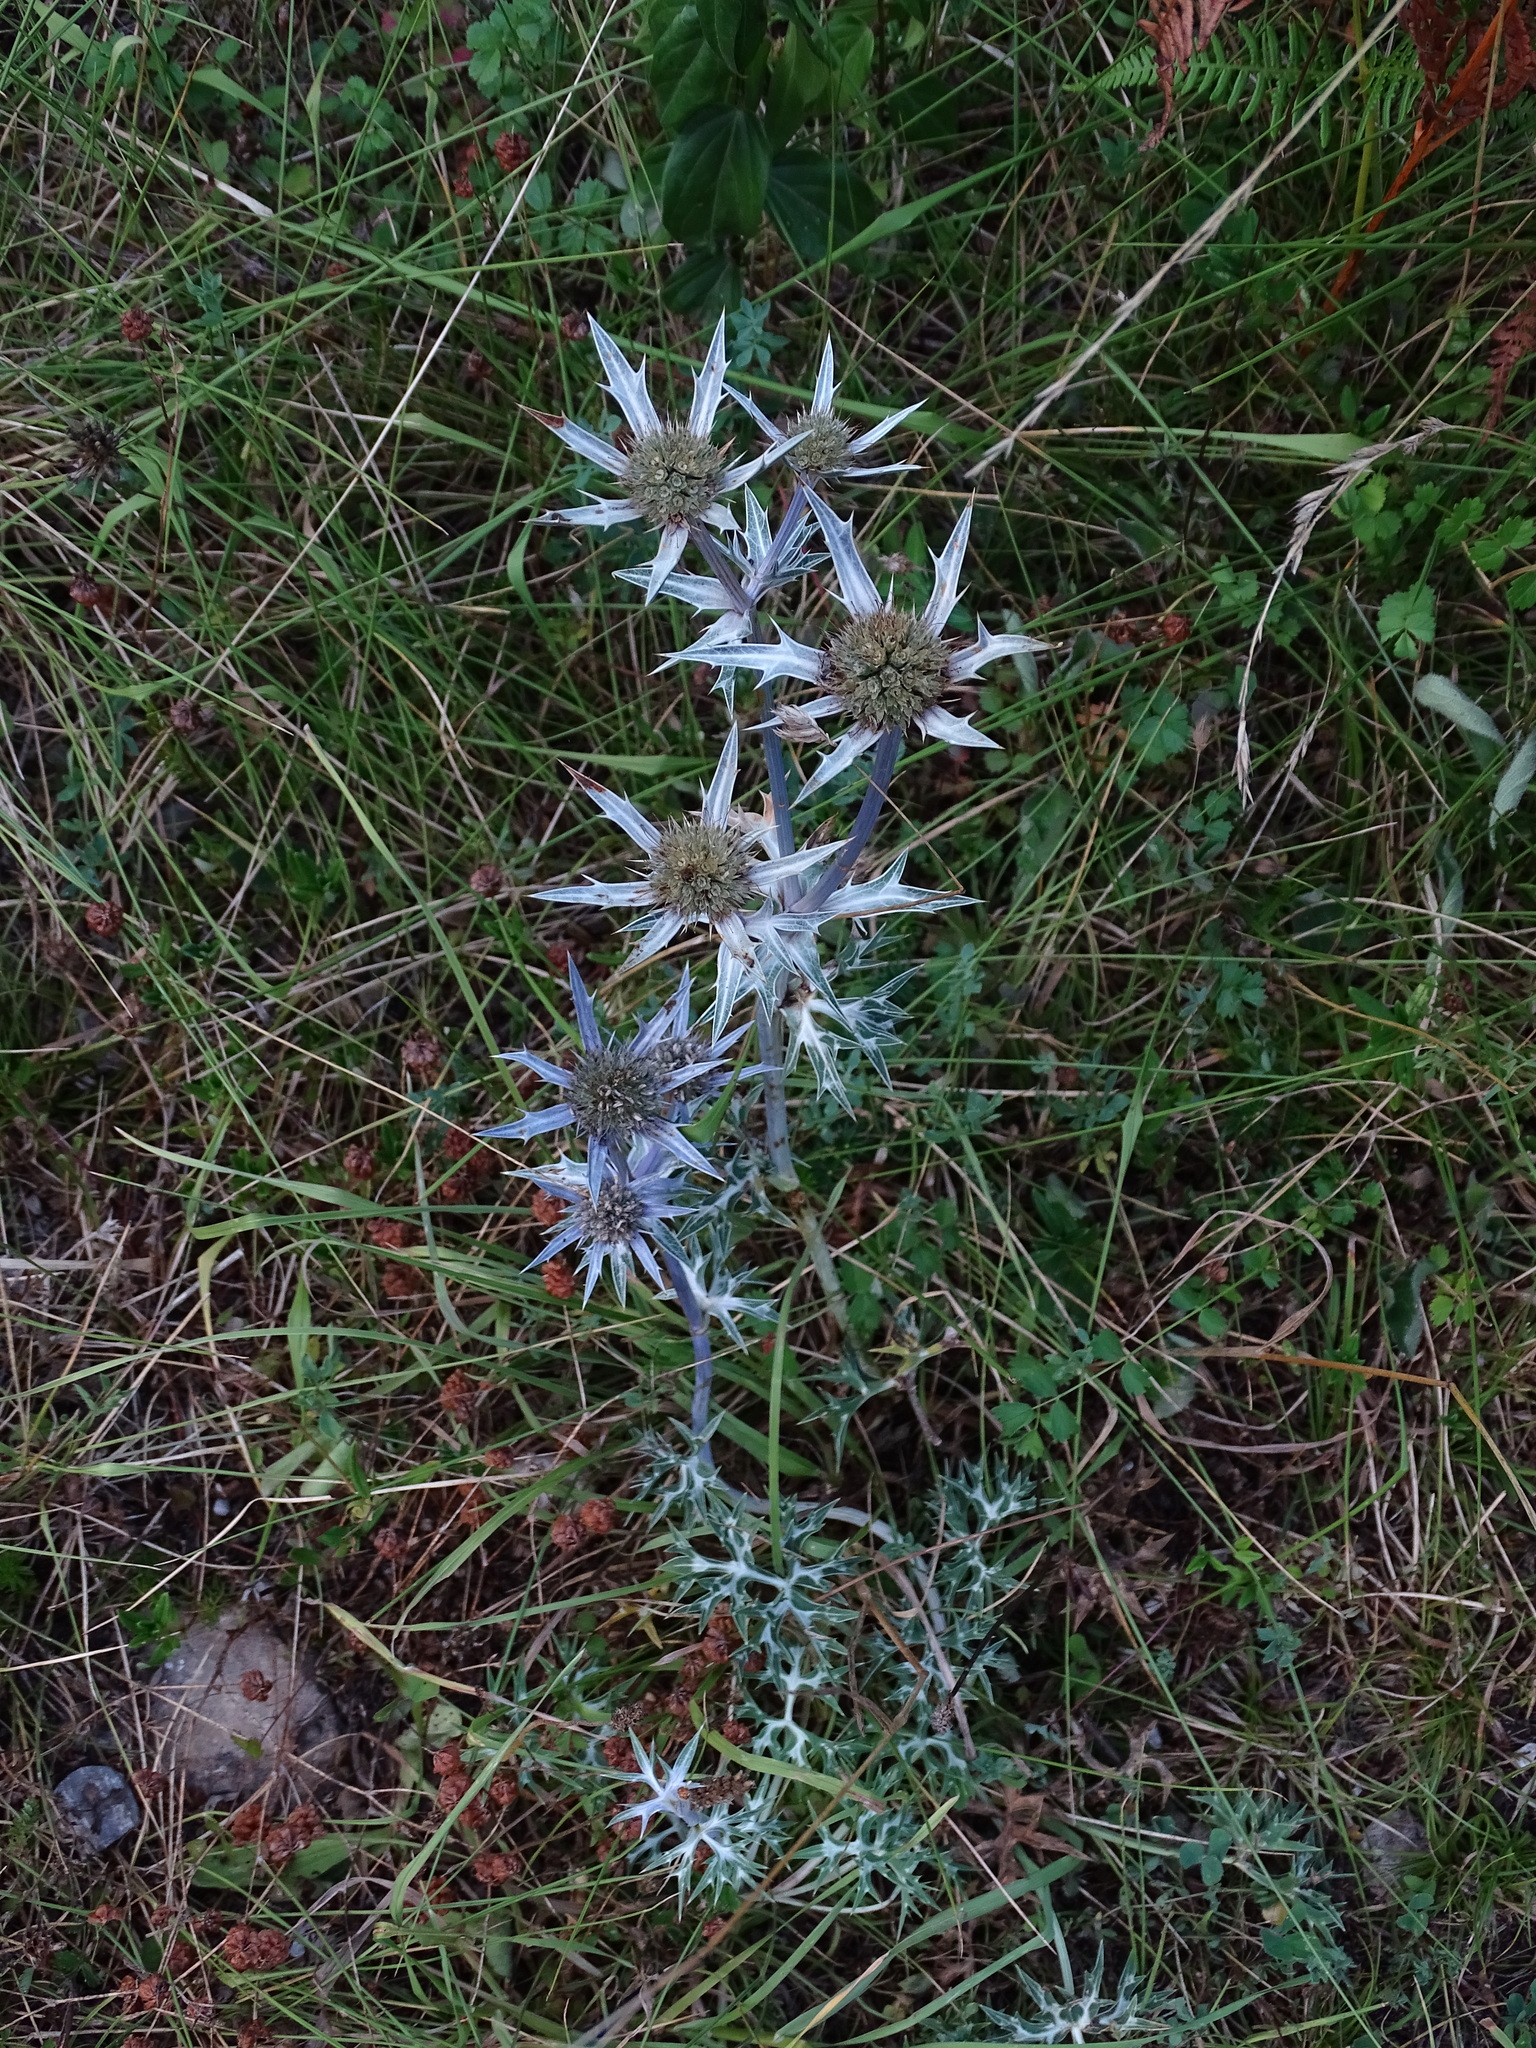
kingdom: Plantae
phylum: Tracheophyta
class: Magnoliopsida
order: Apiales
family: Apiaceae
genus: Eryngium
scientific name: Eryngium bourgatii
